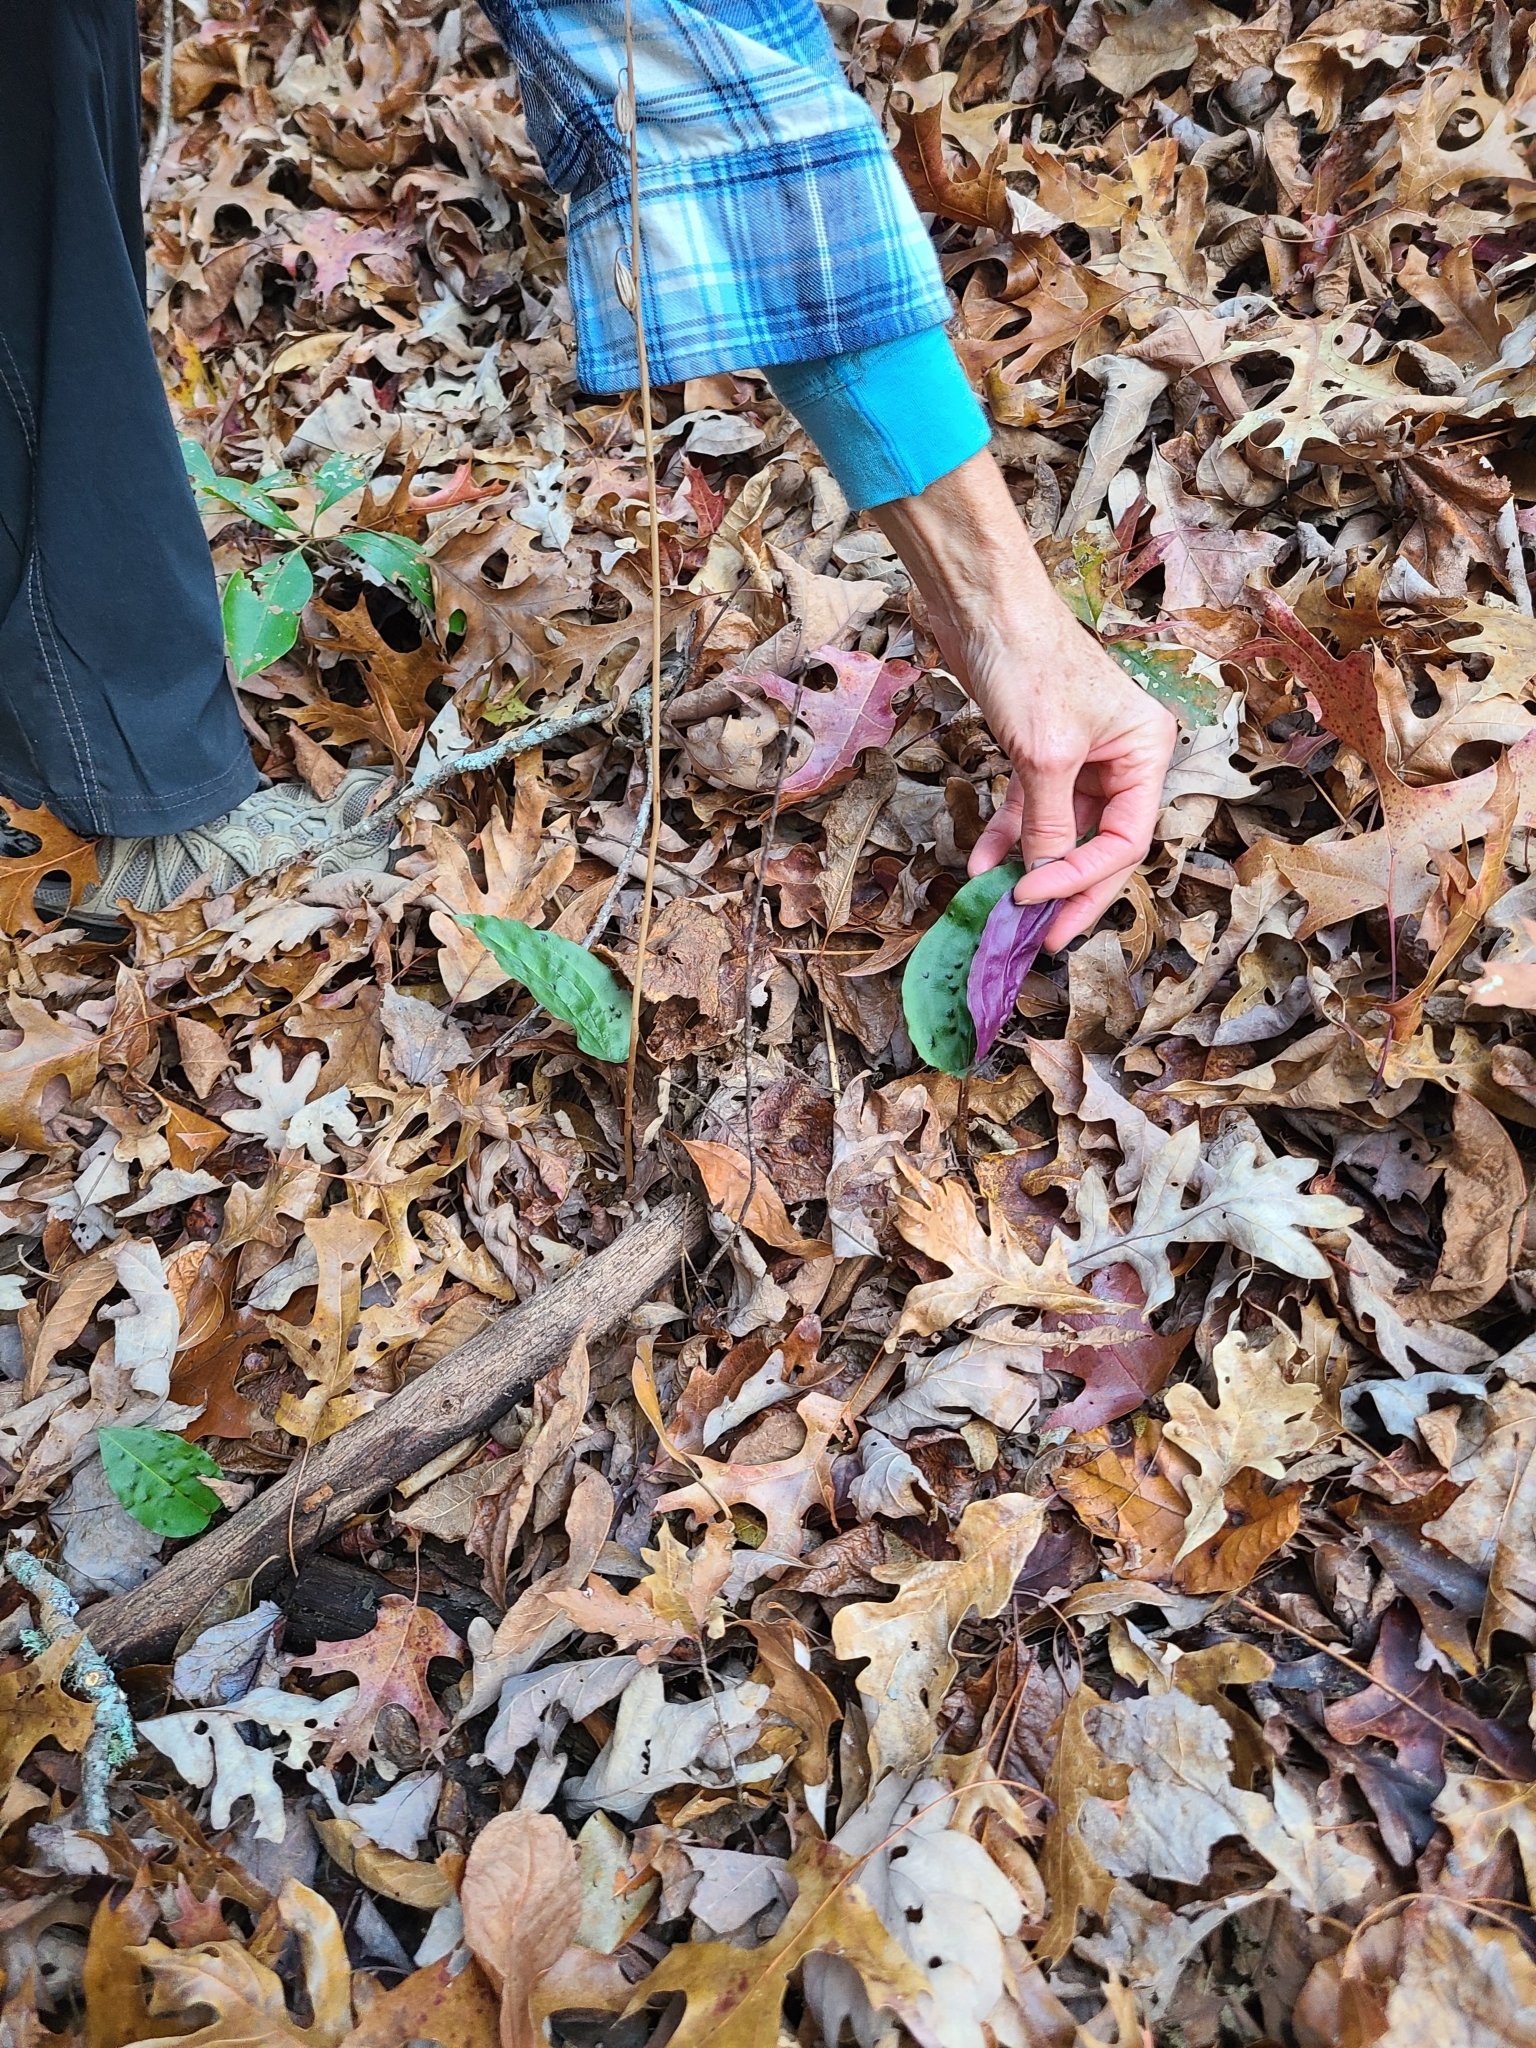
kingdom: Plantae
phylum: Tracheophyta
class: Liliopsida
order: Asparagales
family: Orchidaceae
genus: Tipularia
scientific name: Tipularia discolor
